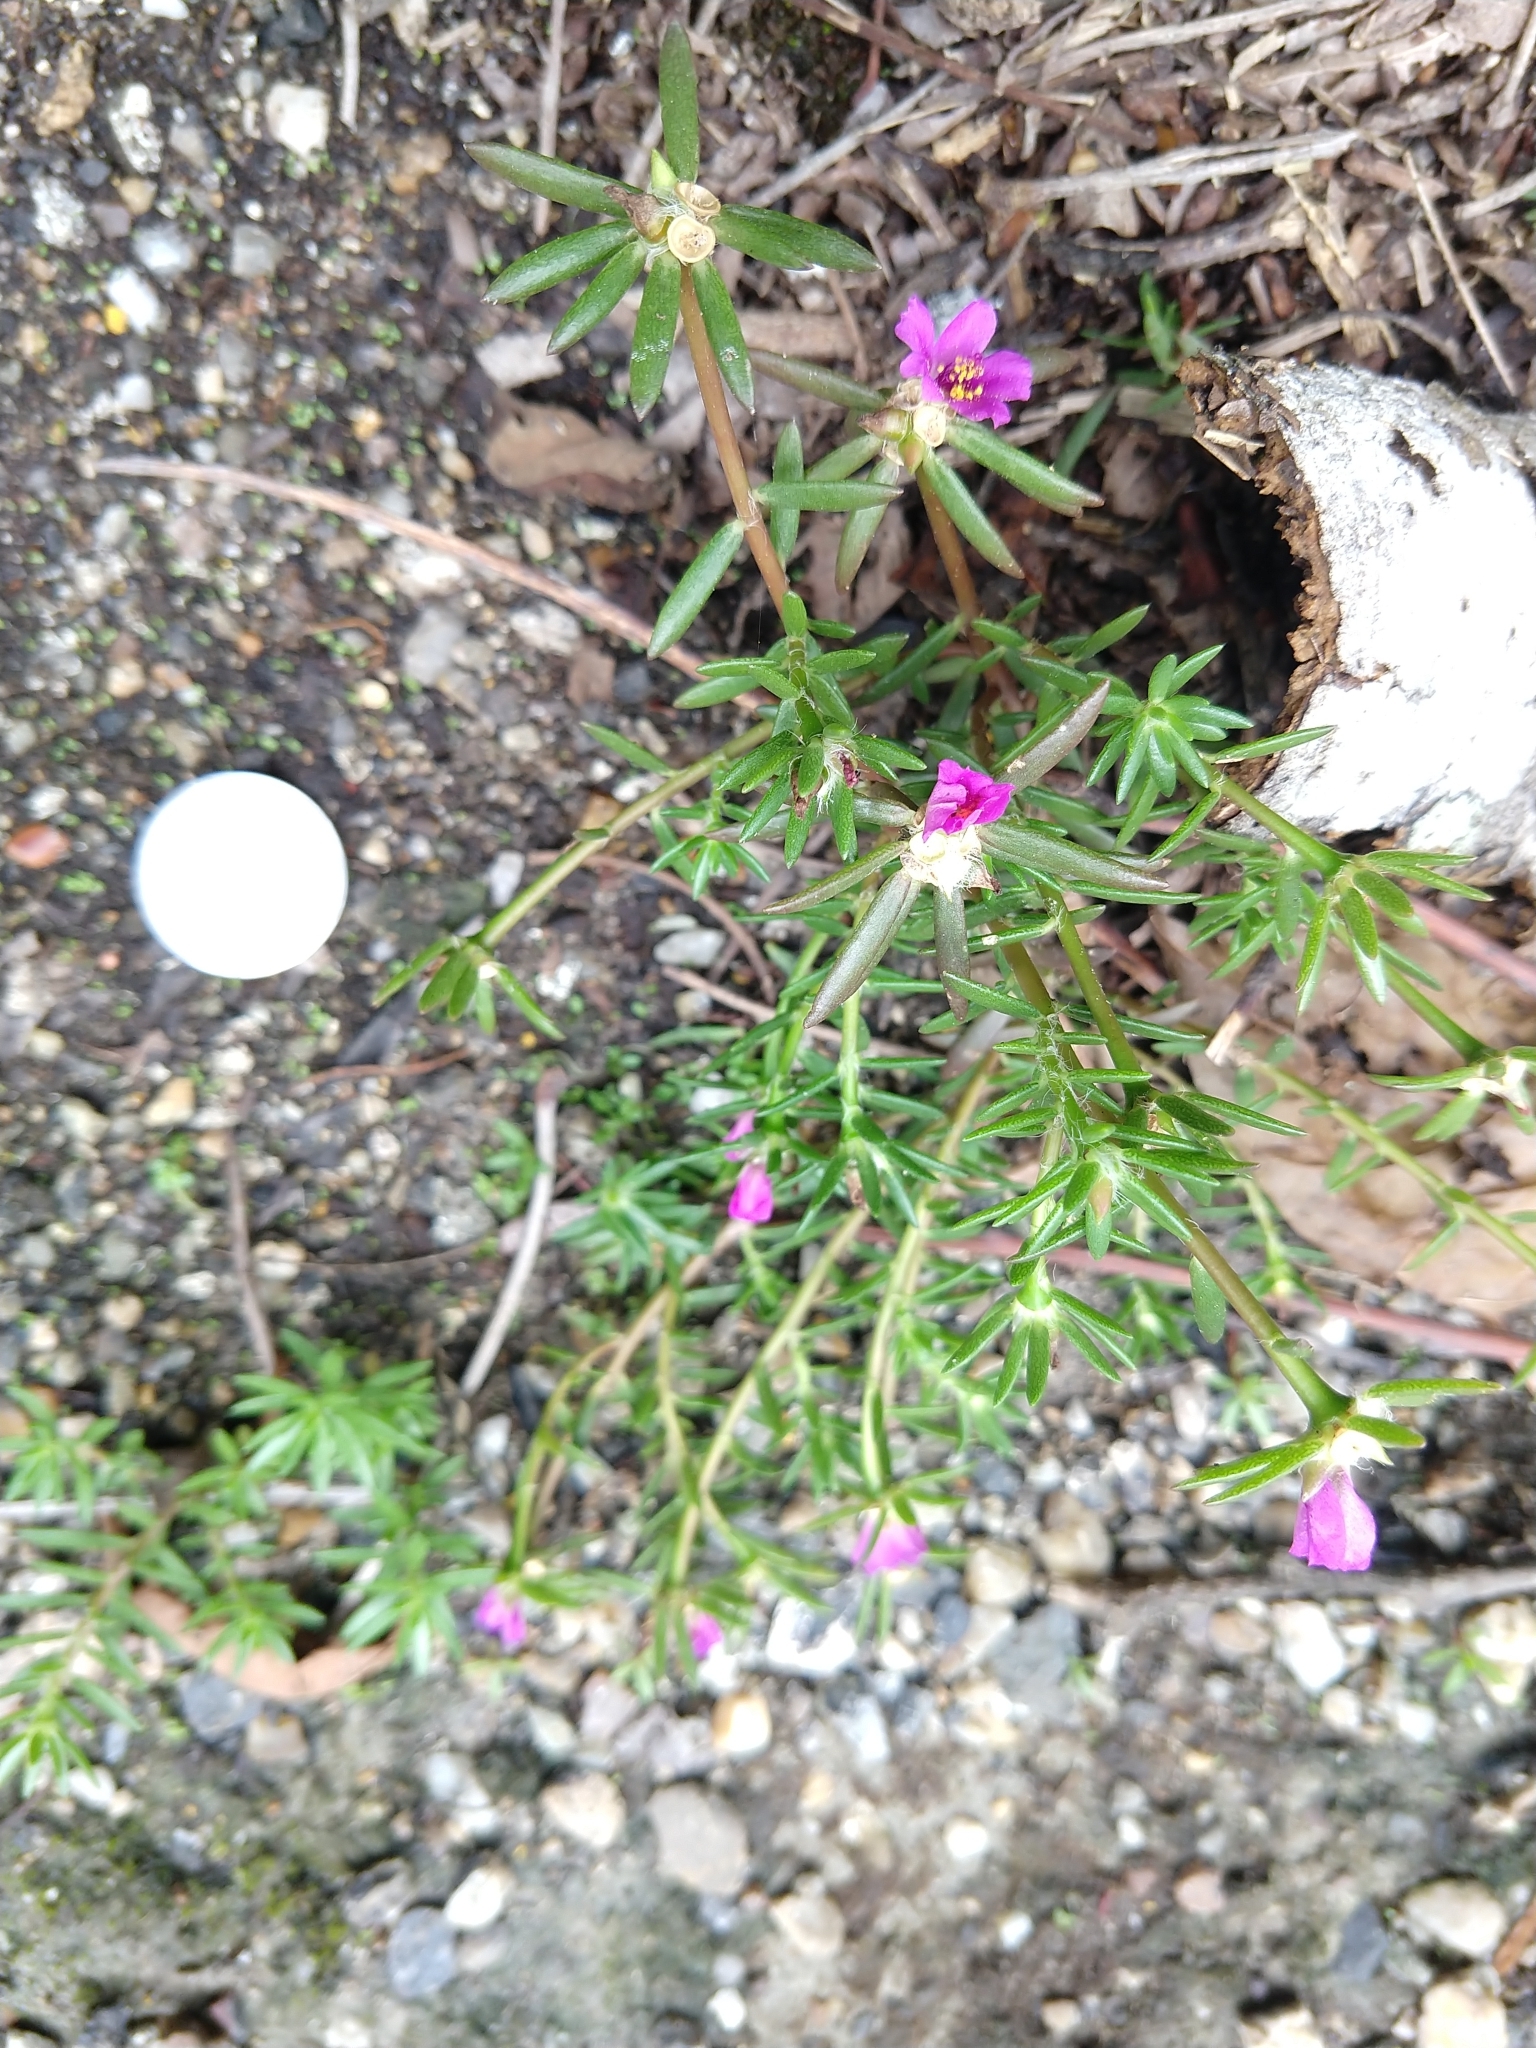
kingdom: Plantae
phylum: Tracheophyta
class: Magnoliopsida
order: Caryophyllales
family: Portulacaceae
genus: Portulaca
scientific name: Portulaca pilosa
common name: Kiss me quick
